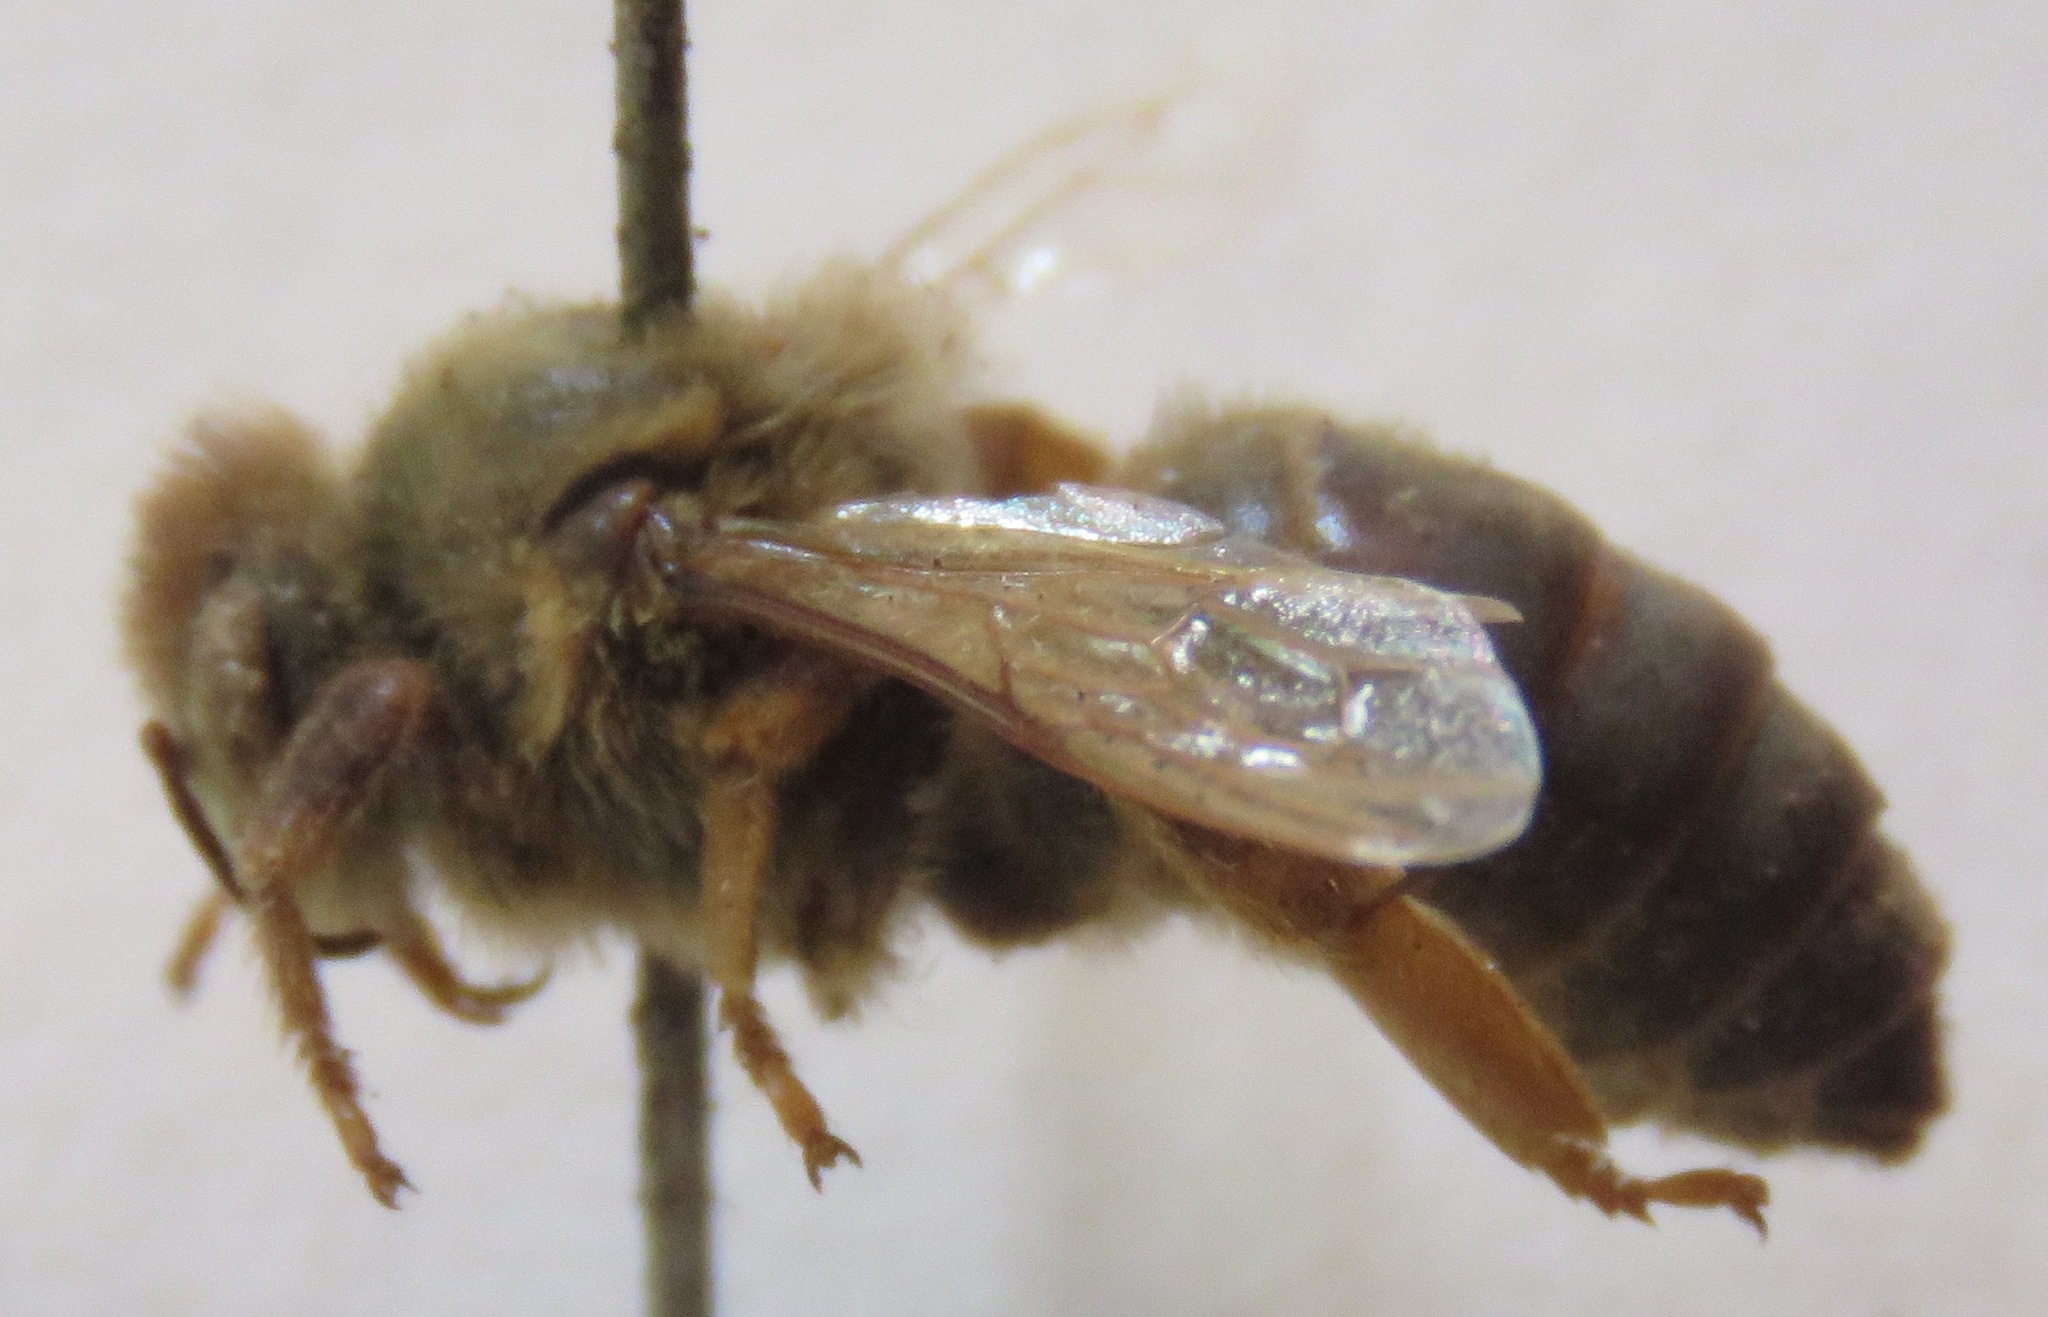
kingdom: Animalia
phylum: Arthropoda
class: Insecta
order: Hymenoptera
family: Apidae
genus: Apis
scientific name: Apis mellifera
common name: Honey bee
